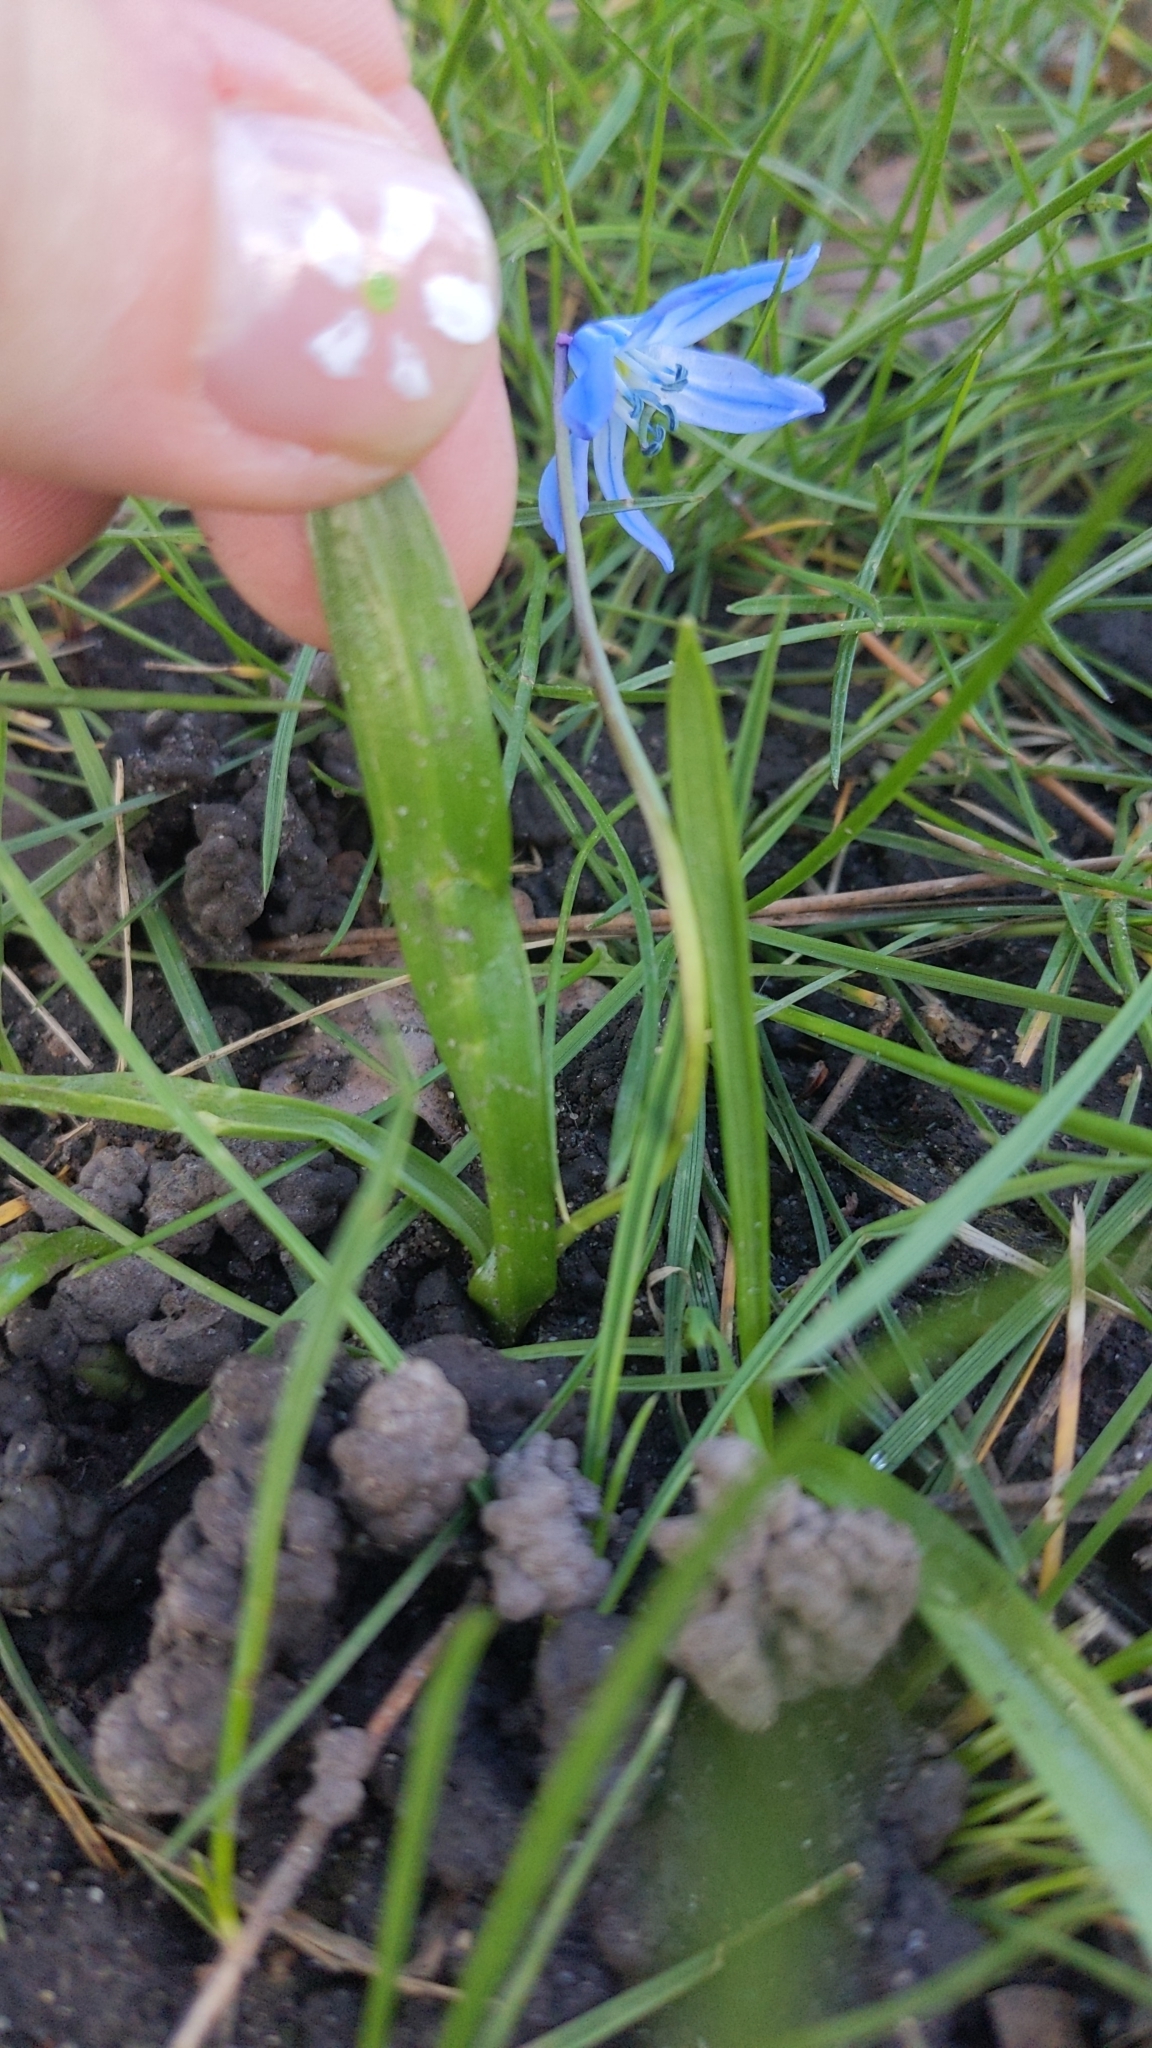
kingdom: Plantae
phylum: Tracheophyta
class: Liliopsida
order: Asparagales
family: Asparagaceae
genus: Scilla
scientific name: Scilla siberica
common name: Siberian squill
